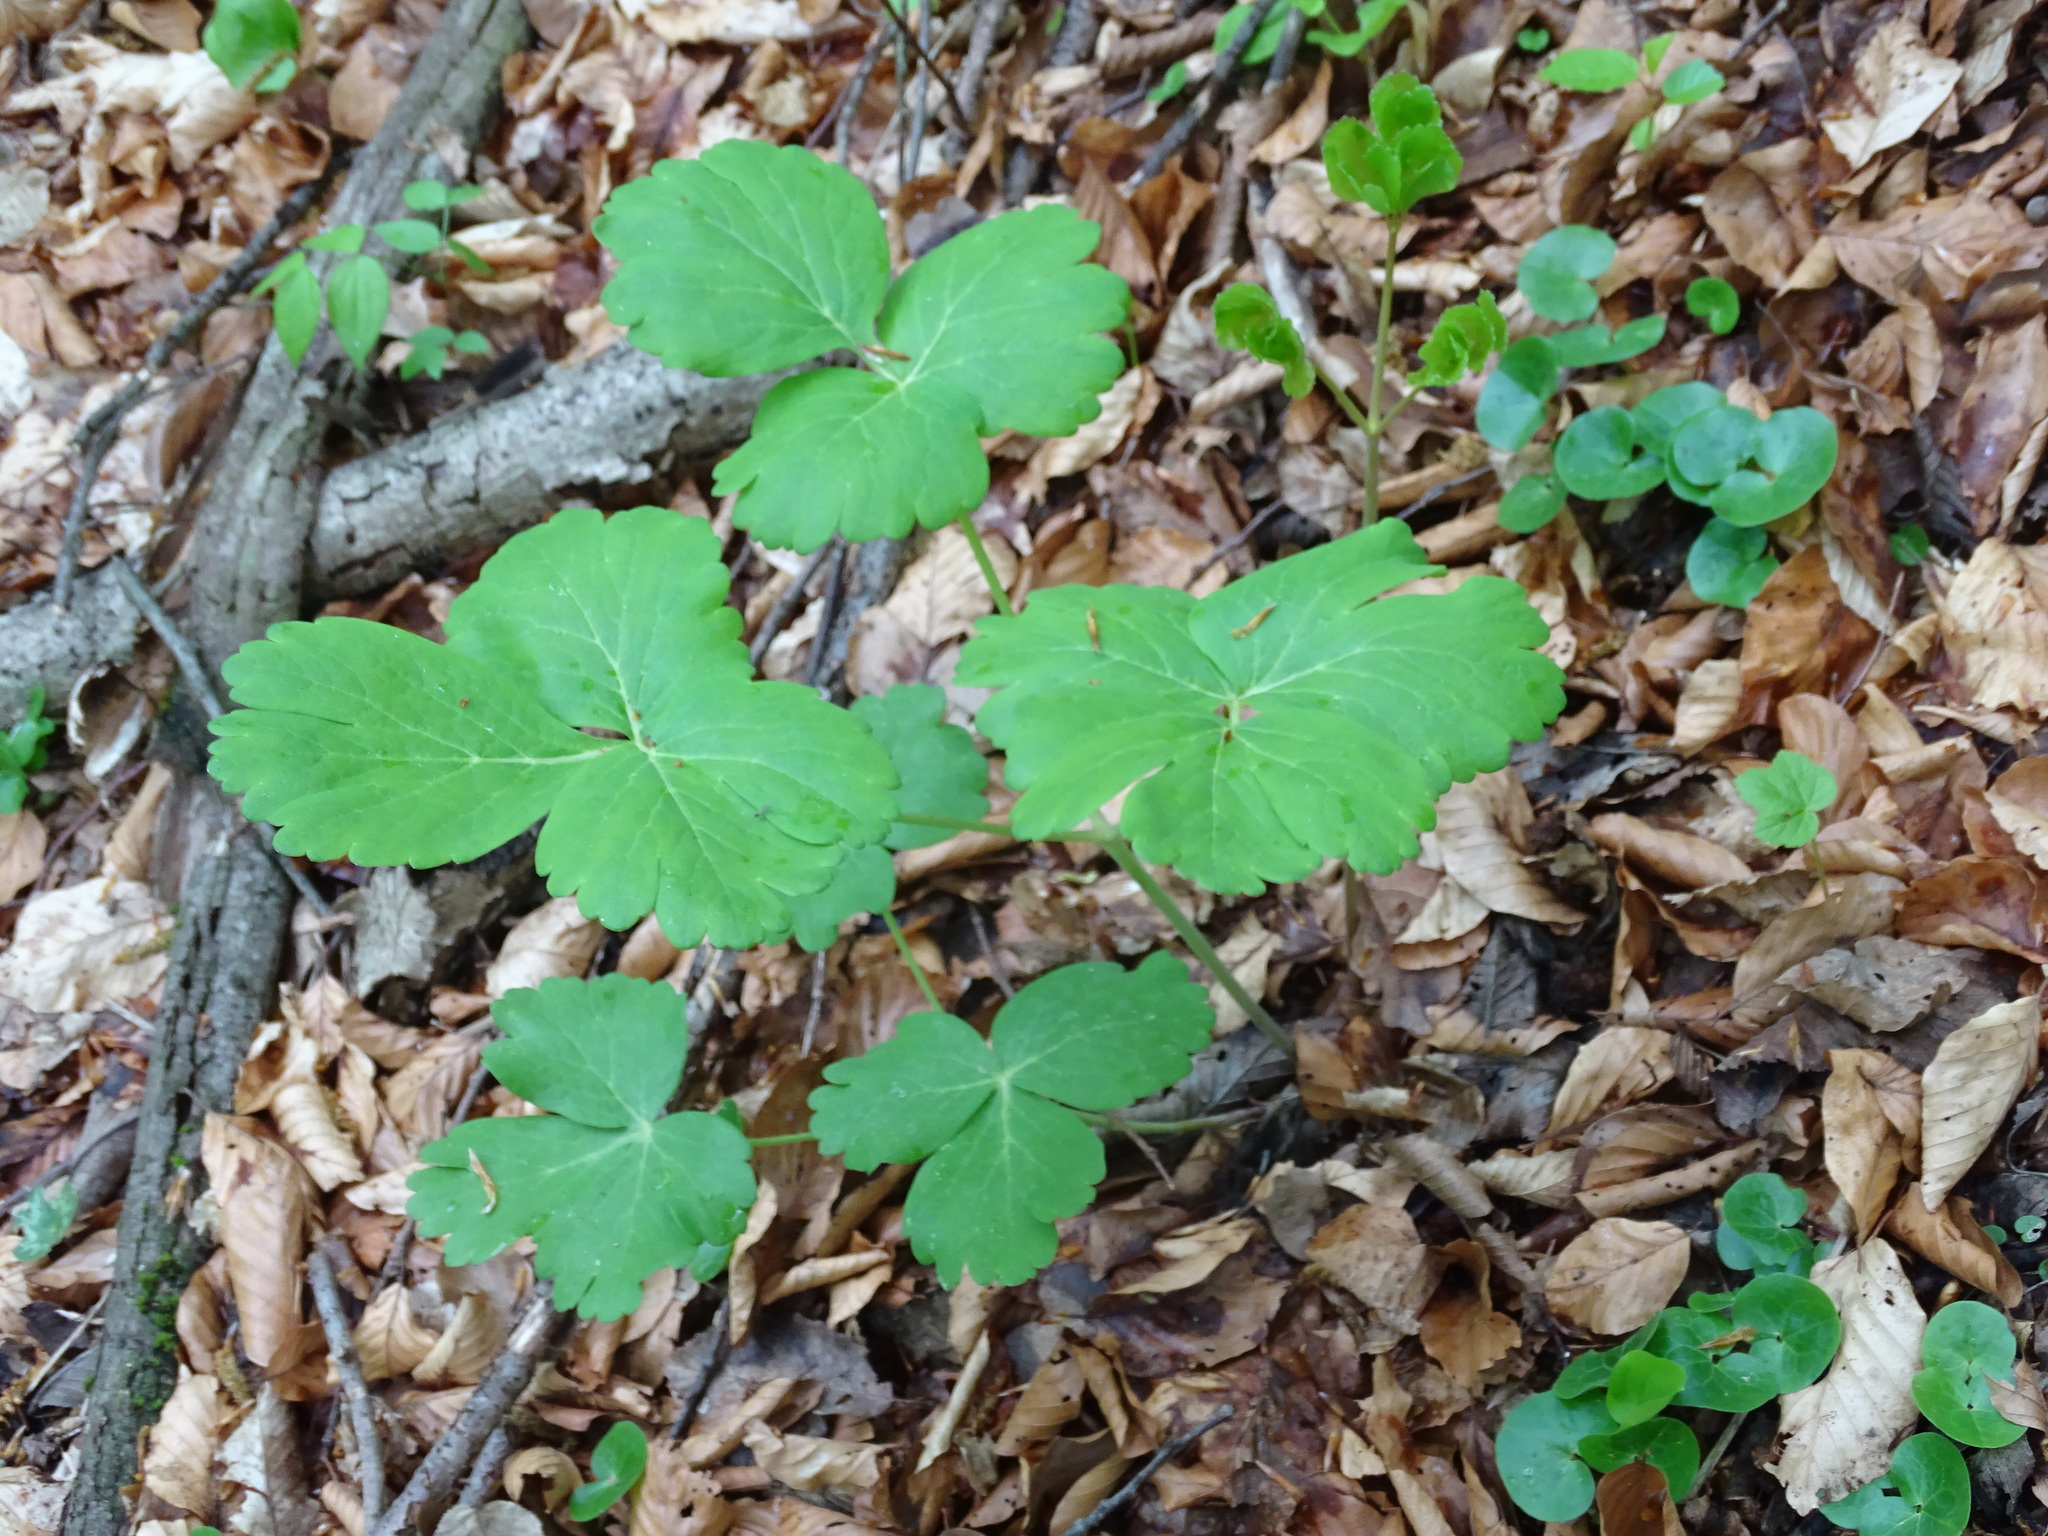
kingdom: Plantae
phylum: Tracheophyta
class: Magnoliopsida
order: Apiales
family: Apiaceae
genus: Laser
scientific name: Laser trilobum
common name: Laser
